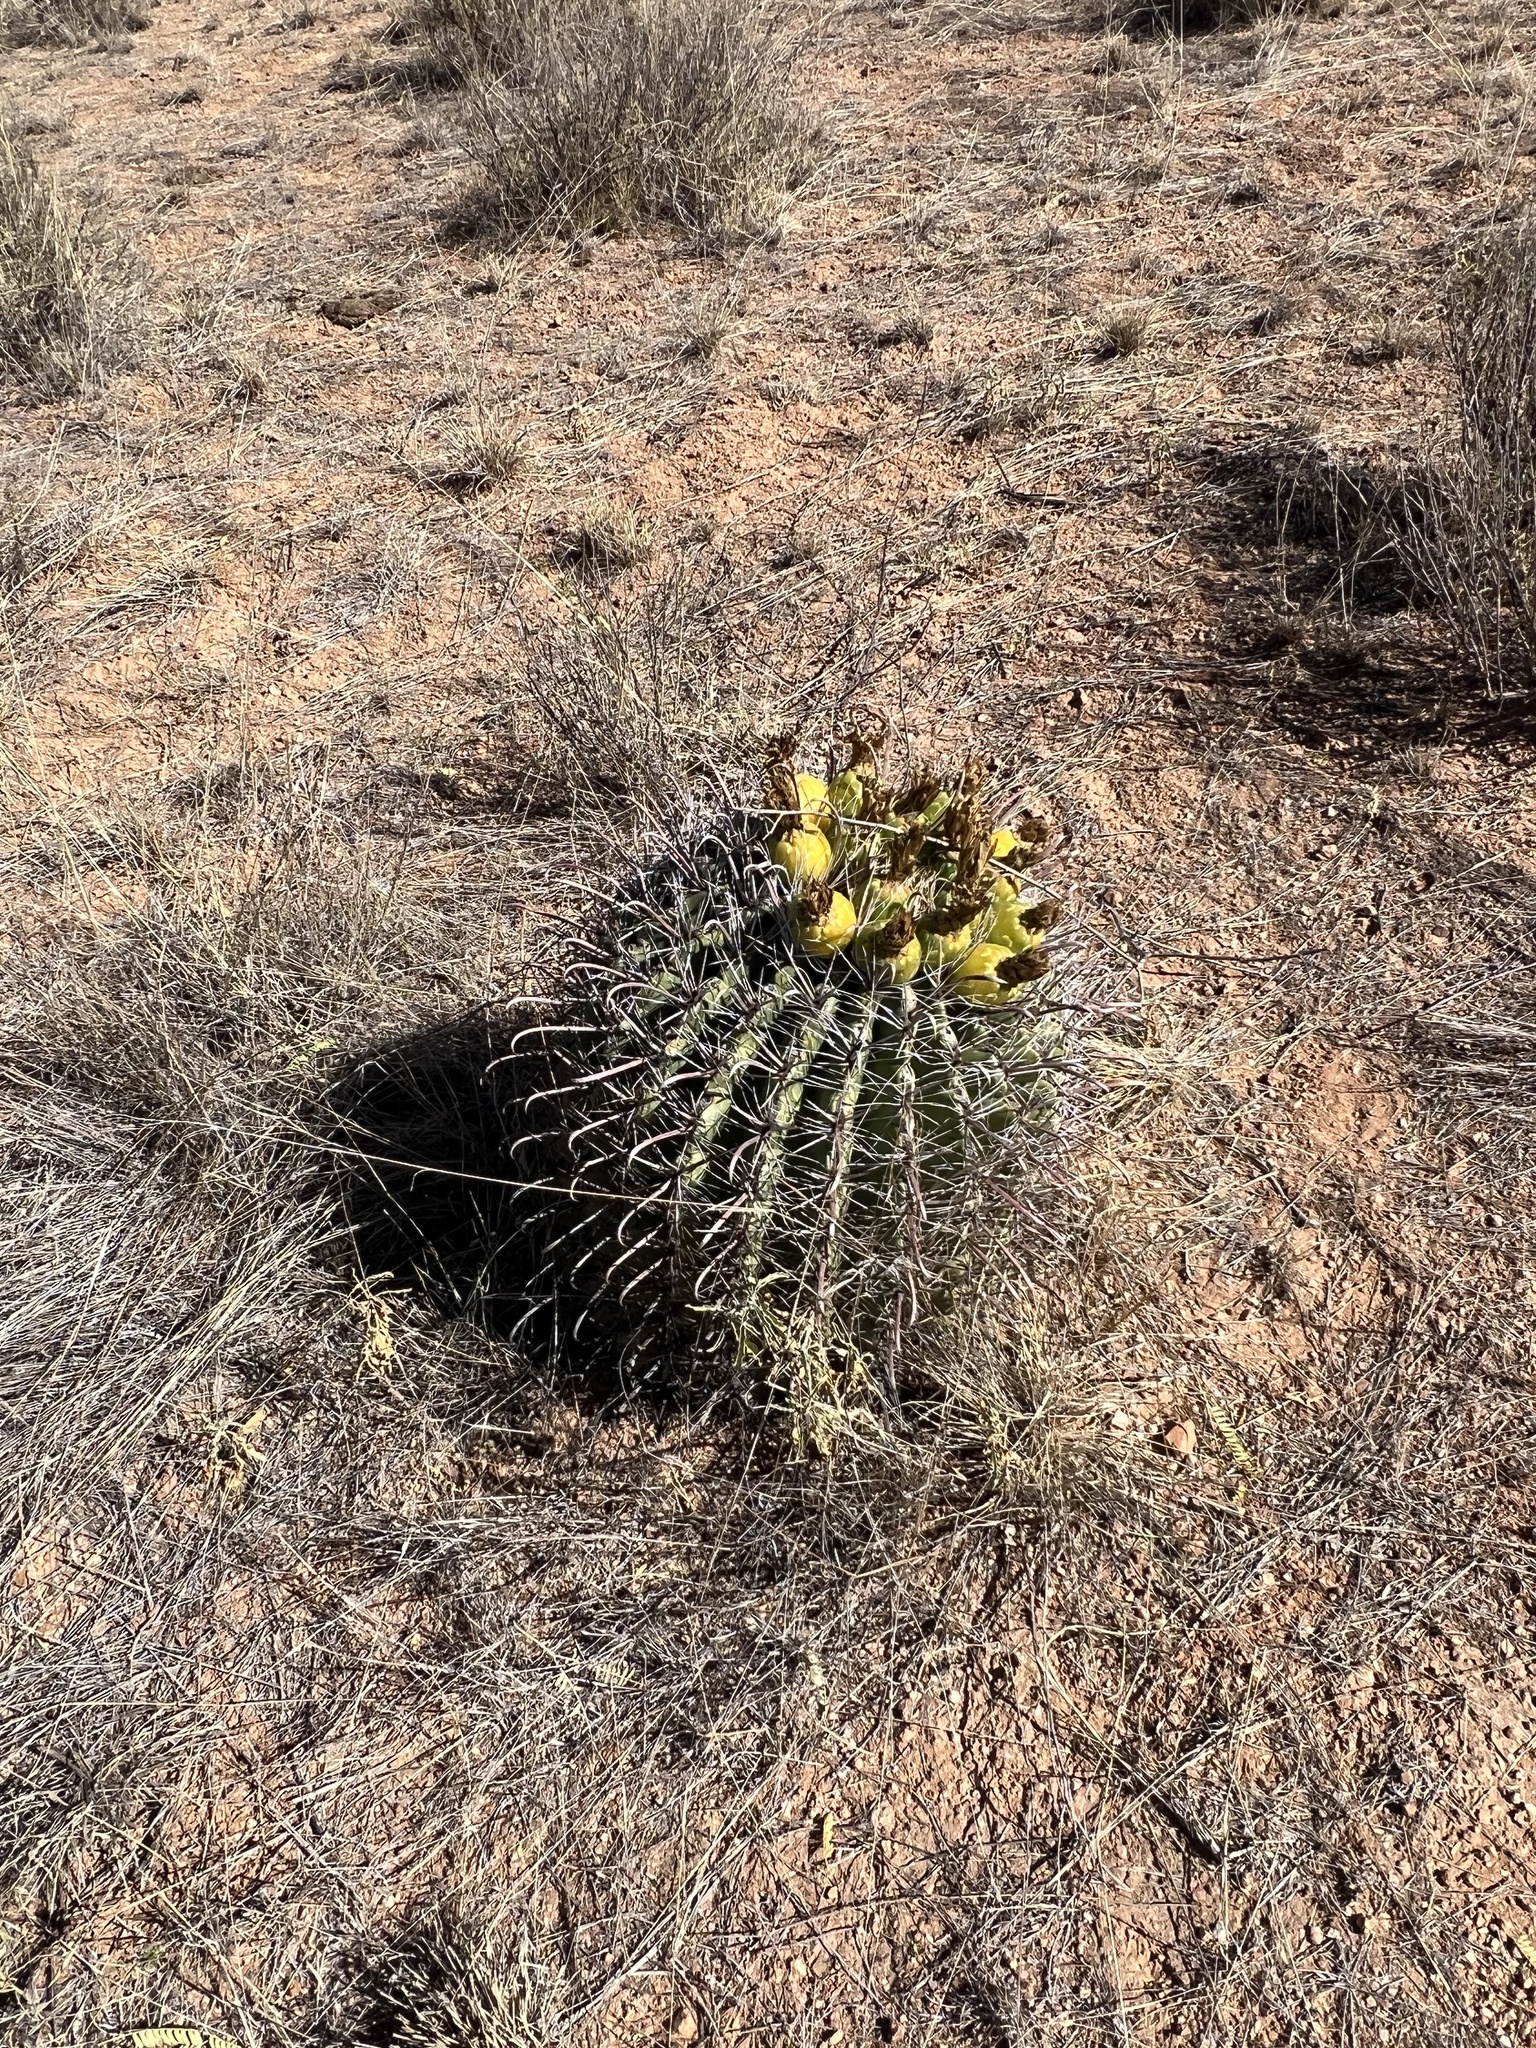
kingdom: Plantae
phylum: Tracheophyta
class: Magnoliopsida
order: Caryophyllales
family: Cactaceae
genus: Ferocactus
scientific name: Ferocactus wislizeni
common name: Candy barrel cactus
